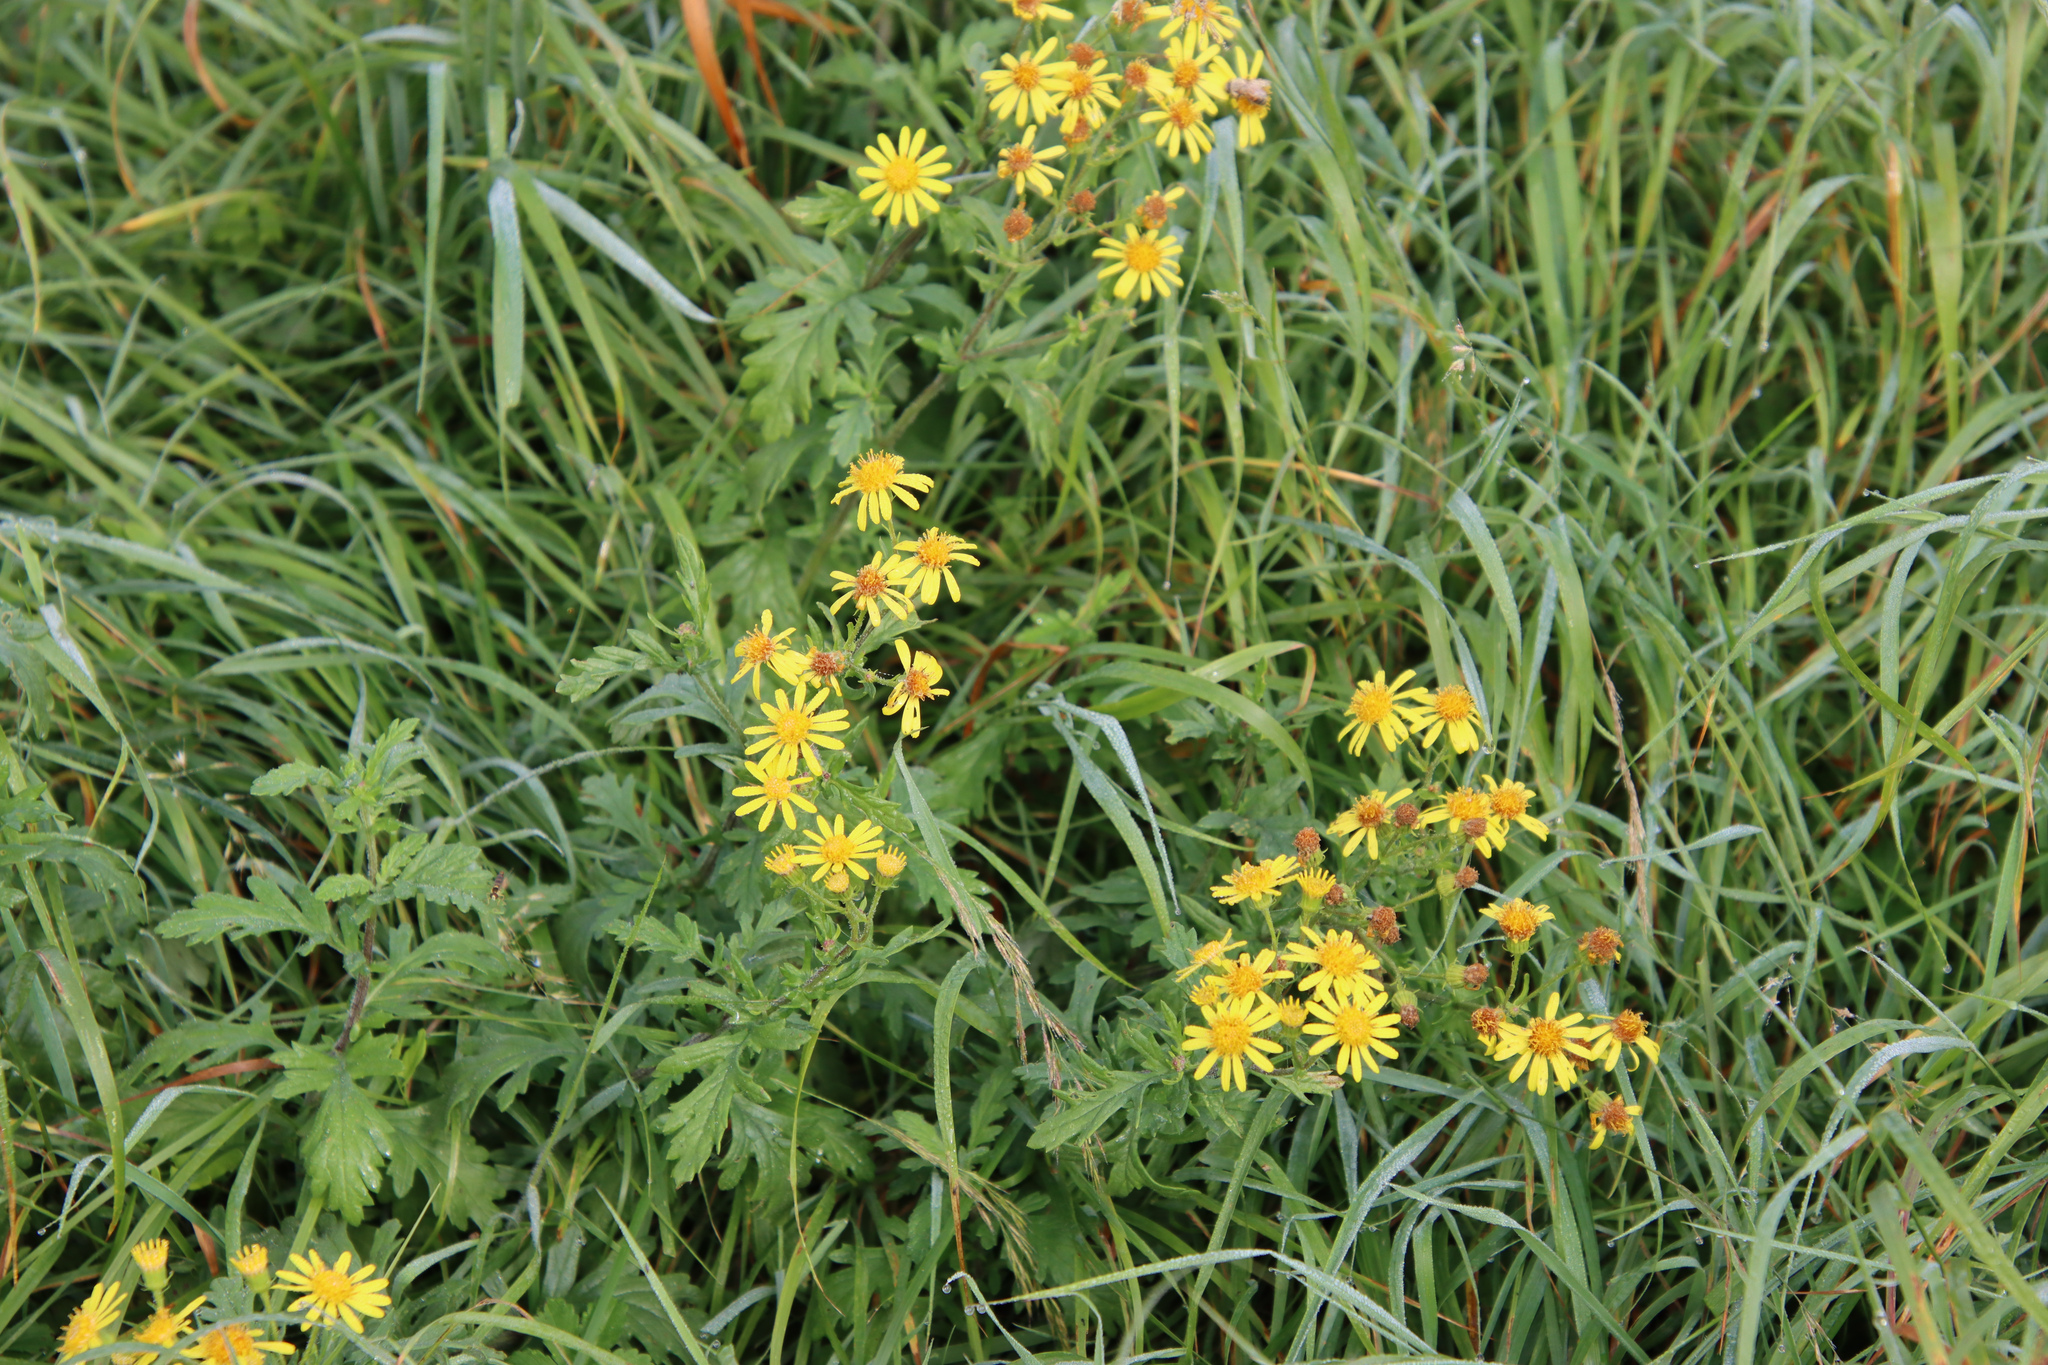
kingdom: Plantae
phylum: Tracheophyta
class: Magnoliopsida
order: Asterales
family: Asteraceae
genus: Jacobaea
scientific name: Jacobaea vulgaris
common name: Stinking willie
